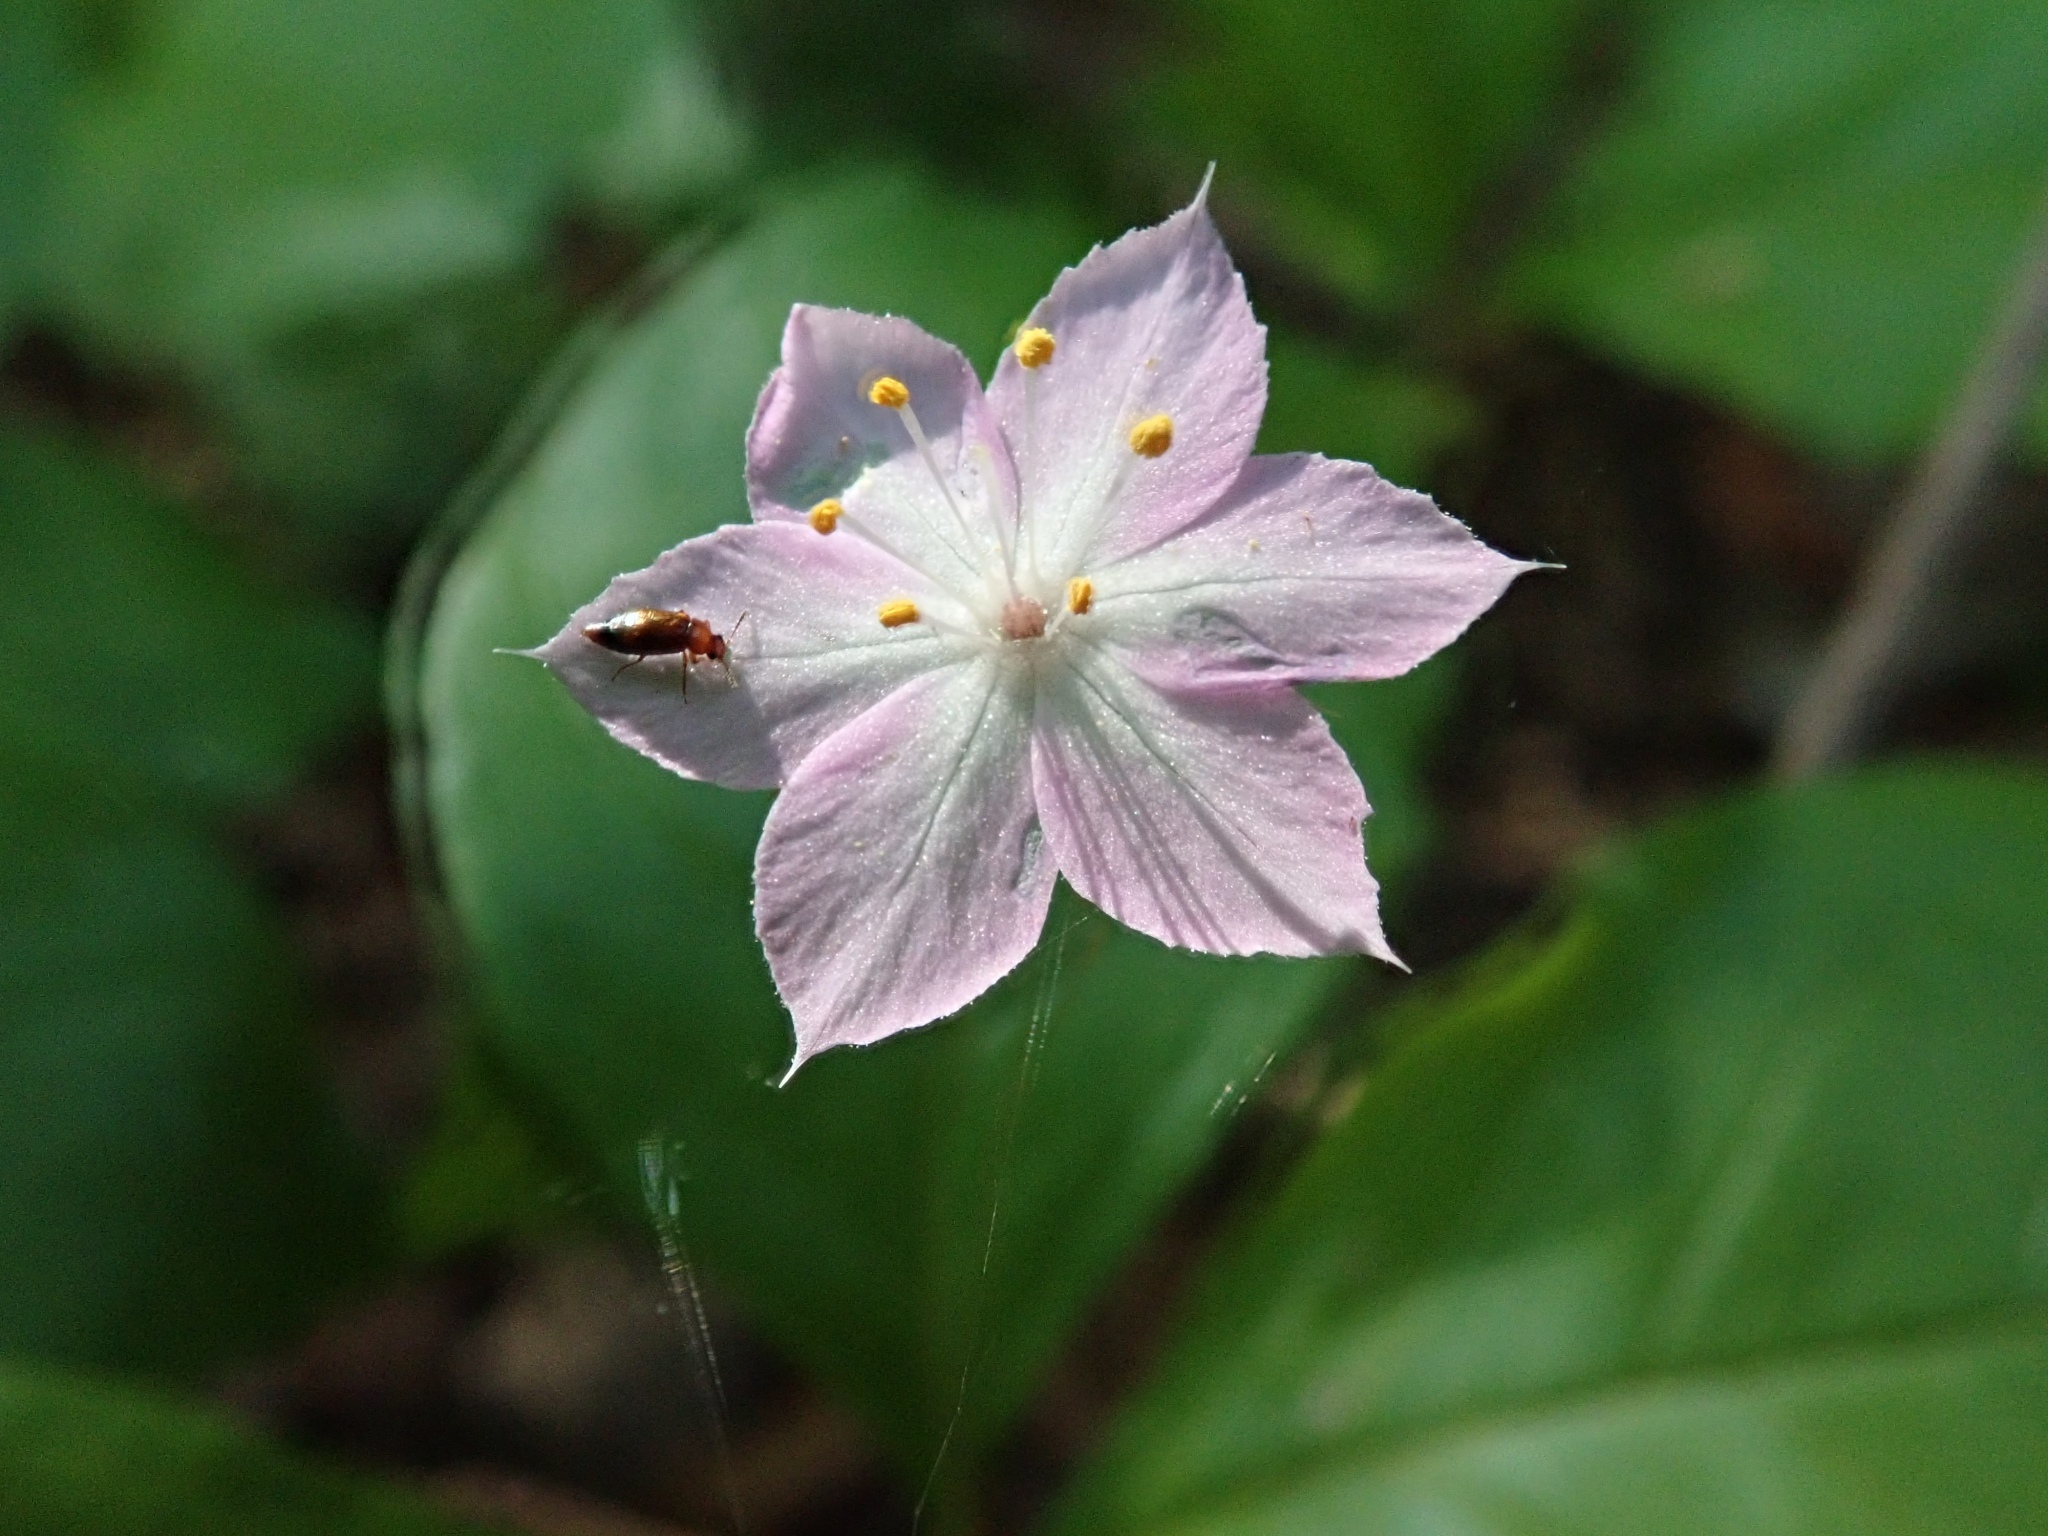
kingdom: Plantae
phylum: Tracheophyta
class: Magnoliopsida
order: Ericales
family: Primulaceae
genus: Lysimachia
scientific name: Lysimachia latifolia
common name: Pacific starflower
